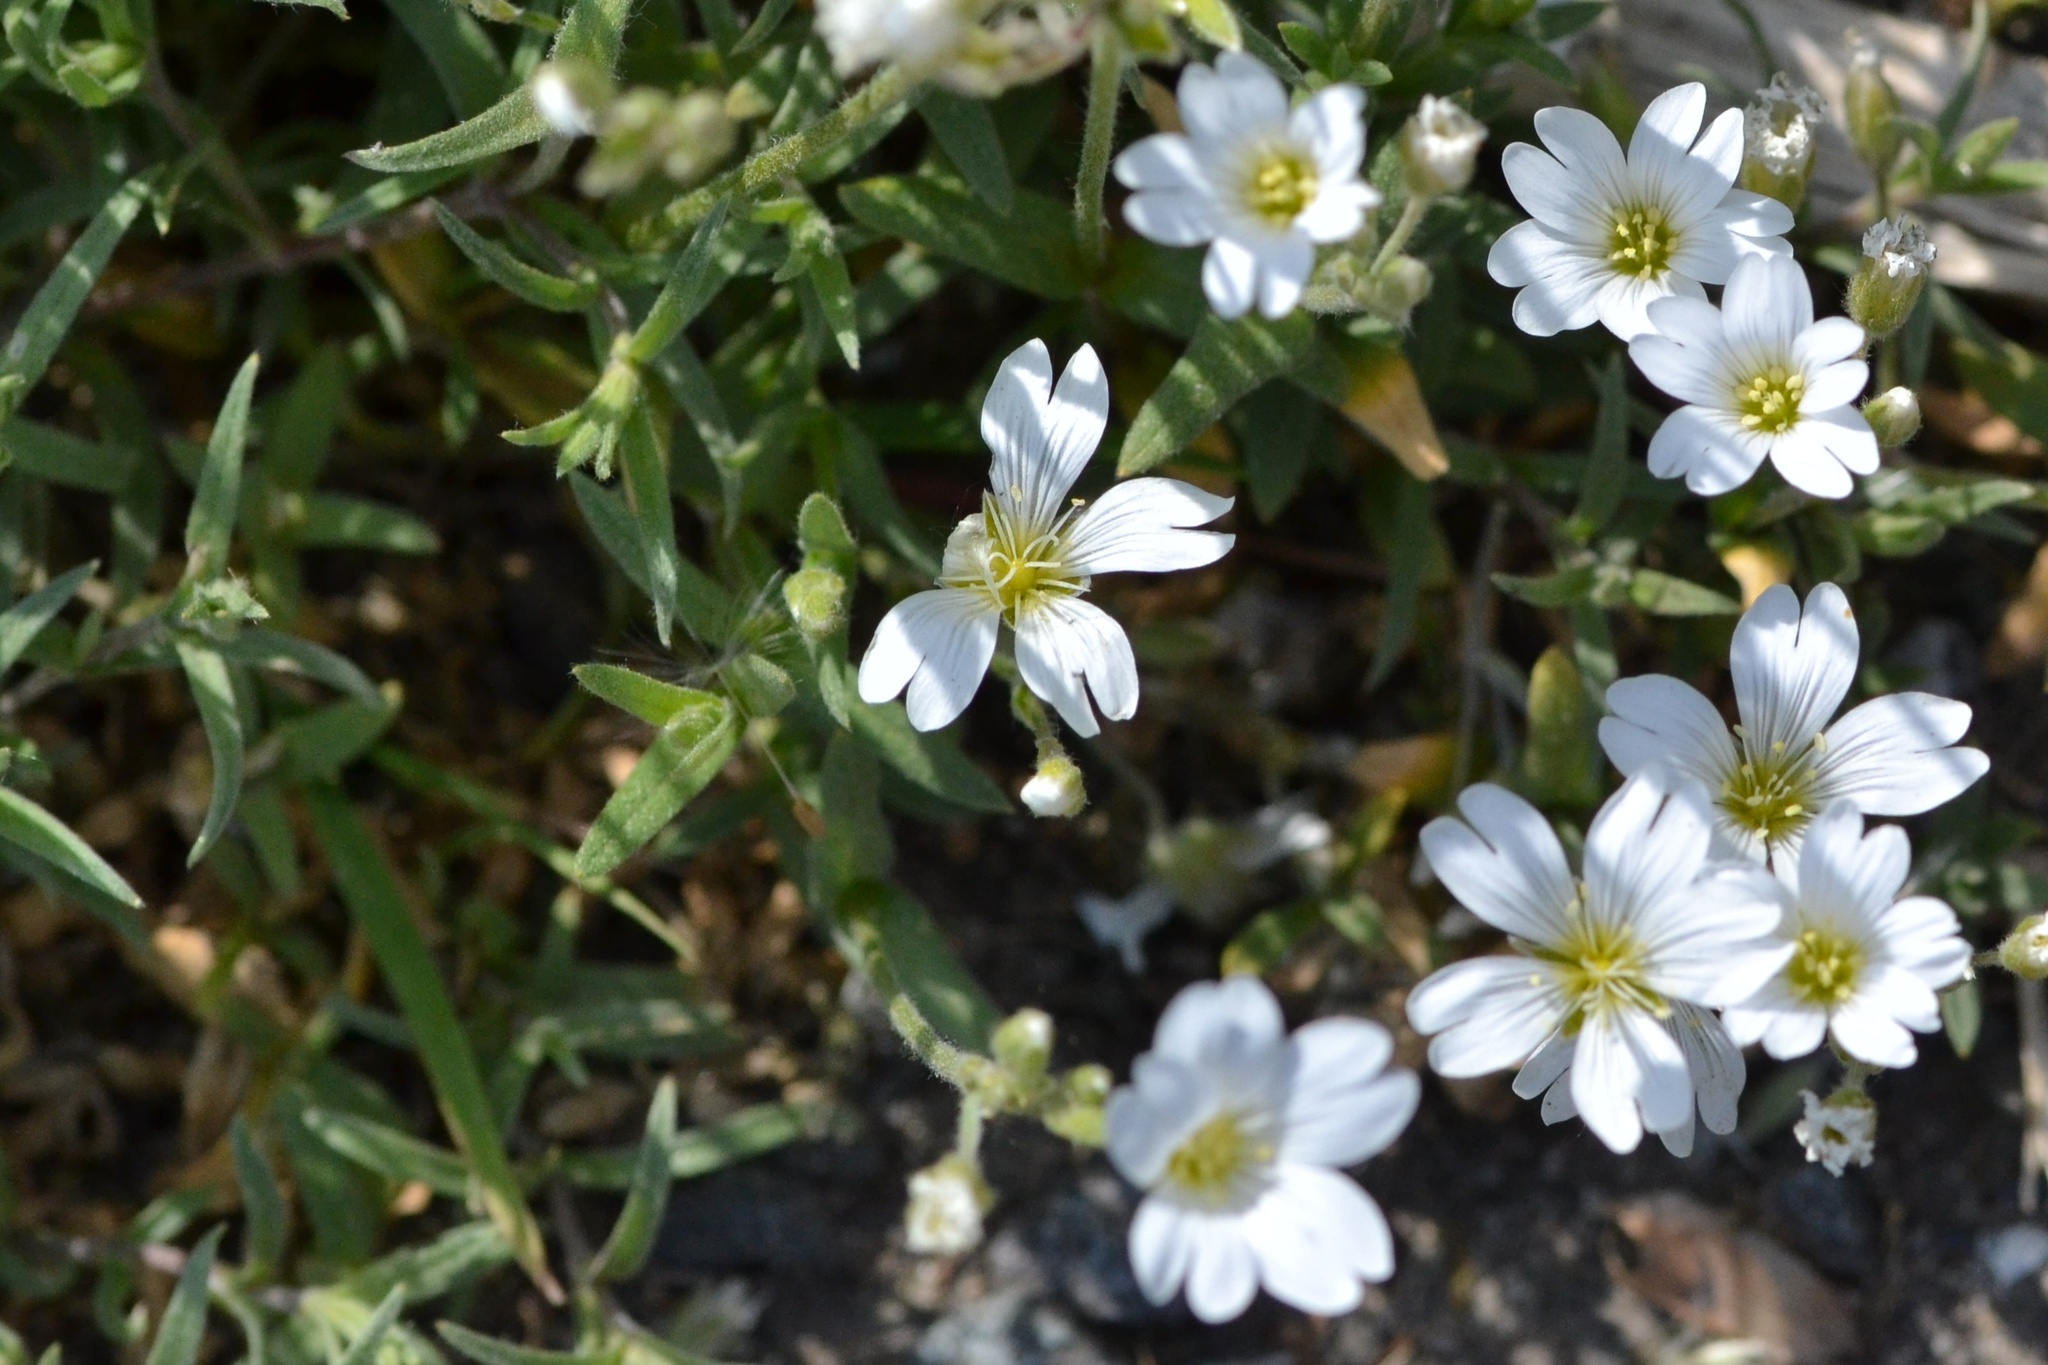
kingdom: Plantae
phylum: Tracheophyta
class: Magnoliopsida
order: Caryophyllales
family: Caryophyllaceae
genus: Cerastium
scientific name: Cerastium arvense
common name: Field mouse-ear
